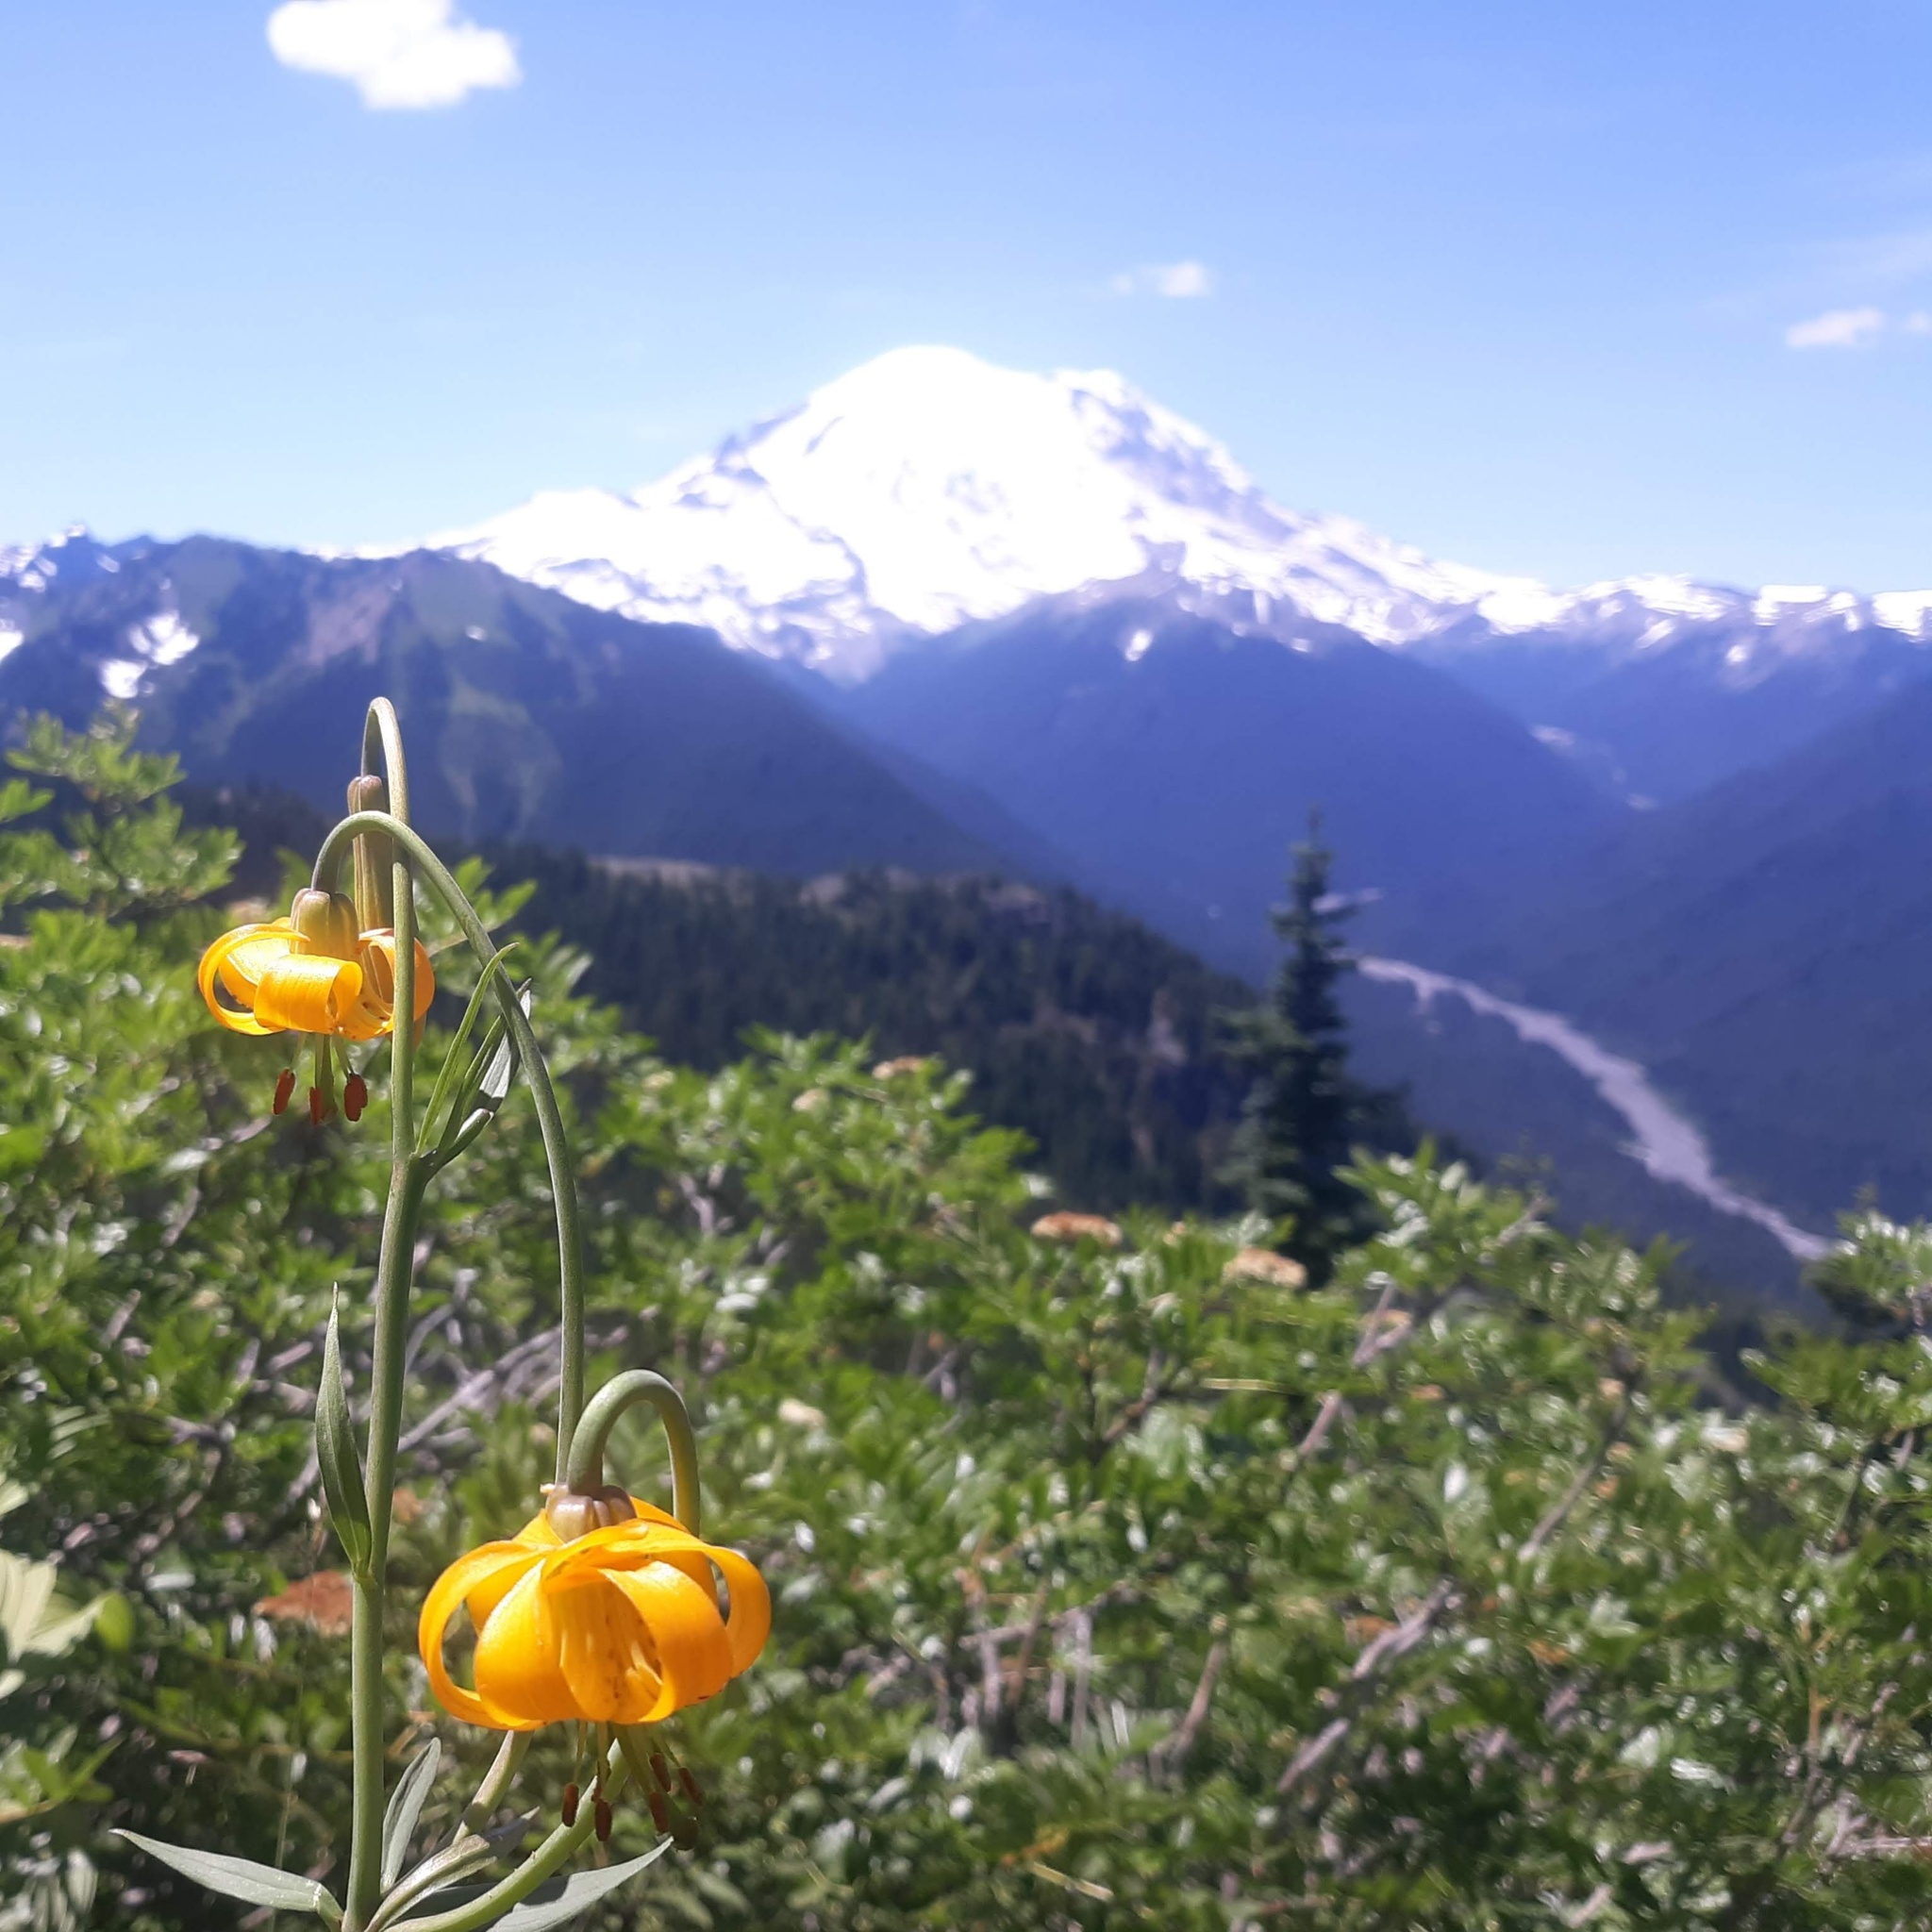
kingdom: Plantae
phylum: Tracheophyta
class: Liliopsida
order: Liliales
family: Liliaceae
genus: Lilium
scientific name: Lilium columbianum
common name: Columbia lily
